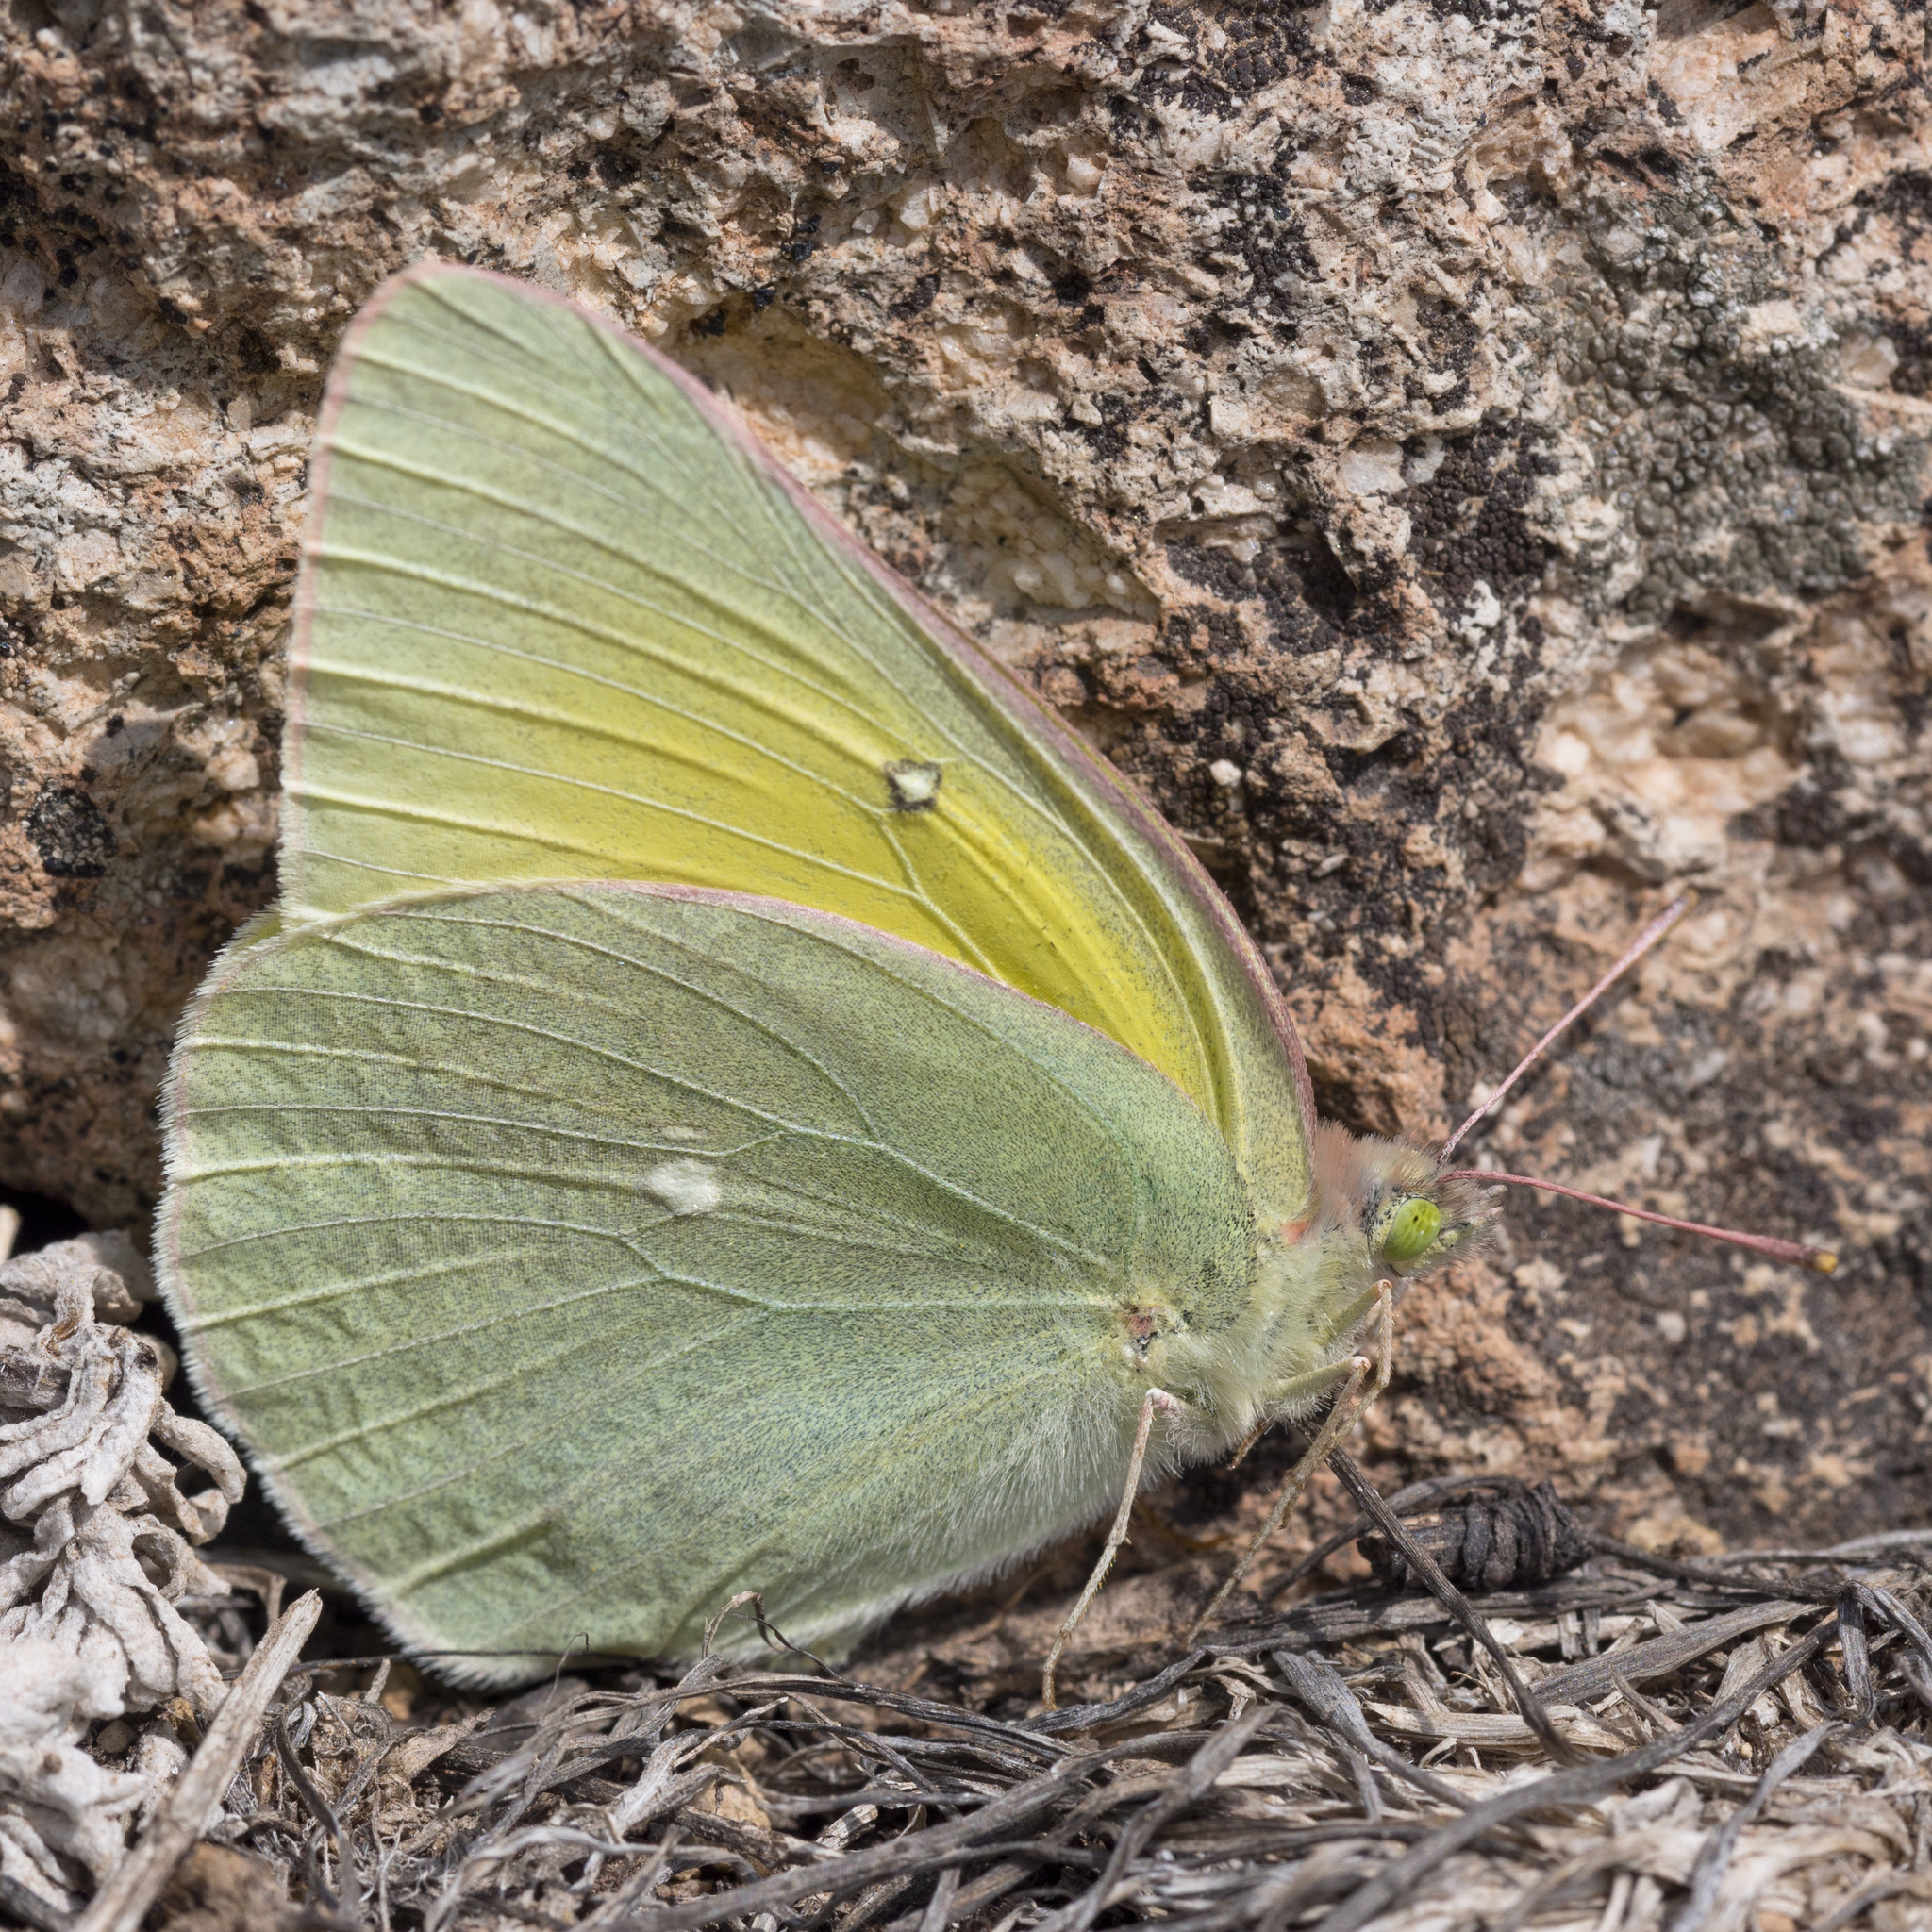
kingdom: Animalia
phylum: Arthropoda
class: Insecta
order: Lepidoptera
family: Pieridae
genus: Colias
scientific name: Colias alexandra
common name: Alexandra sulphur
